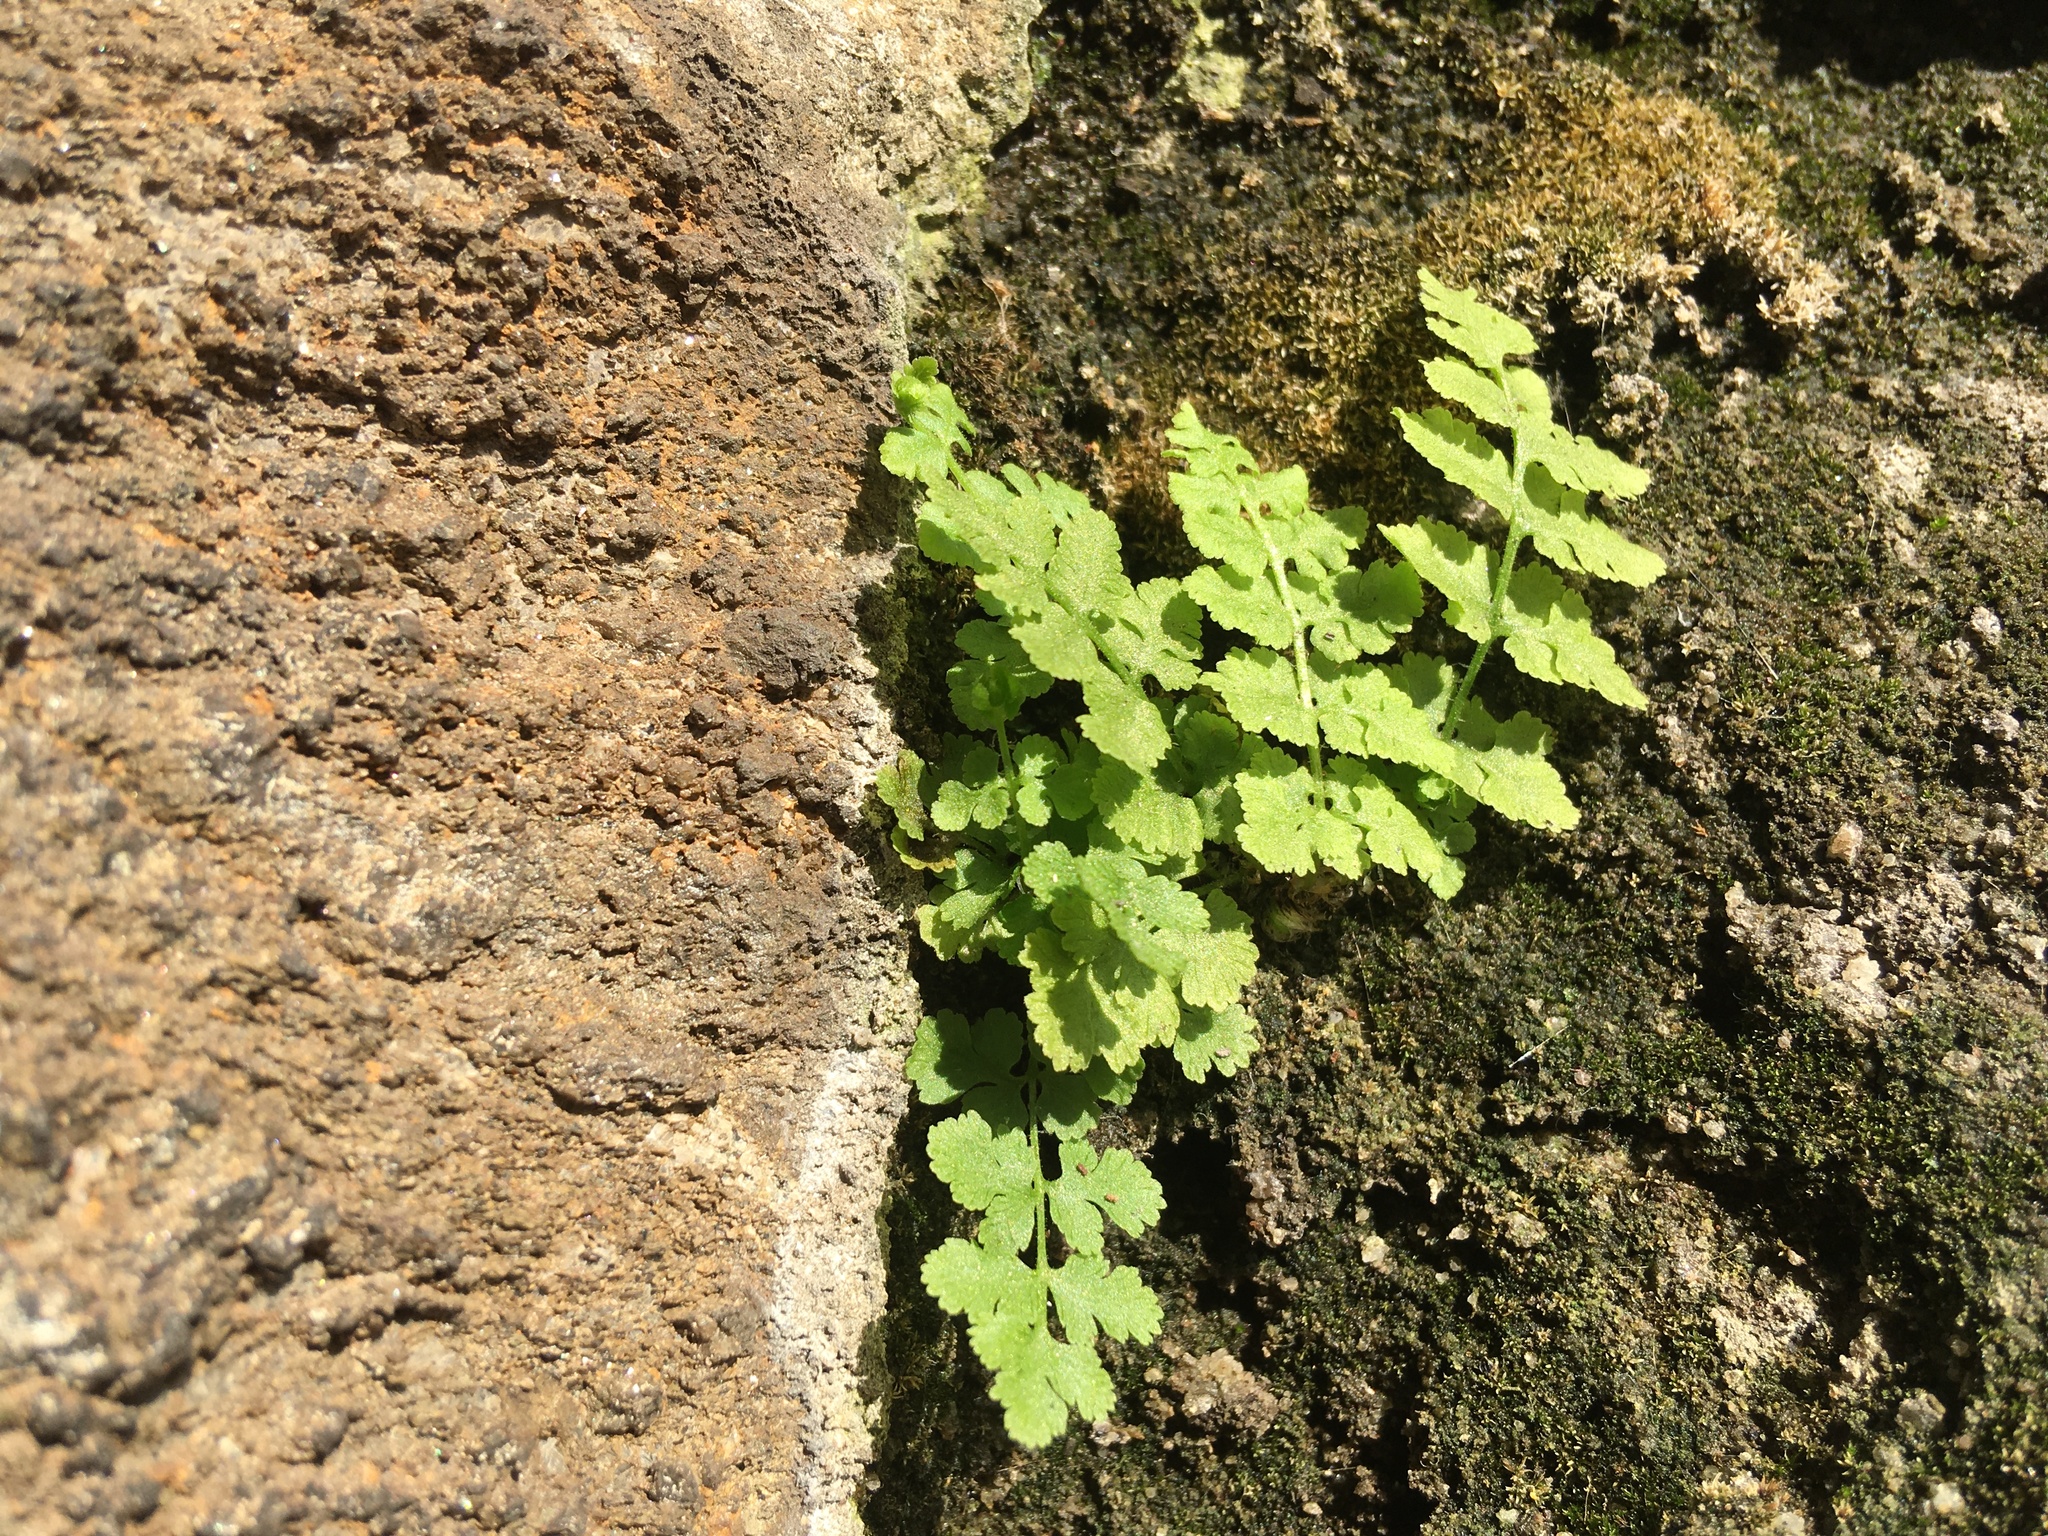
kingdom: Plantae
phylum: Tracheophyta
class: Polypodiopsida
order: Polypodiales
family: Woodsiaceae
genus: Physematium
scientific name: Physematium obtusum
